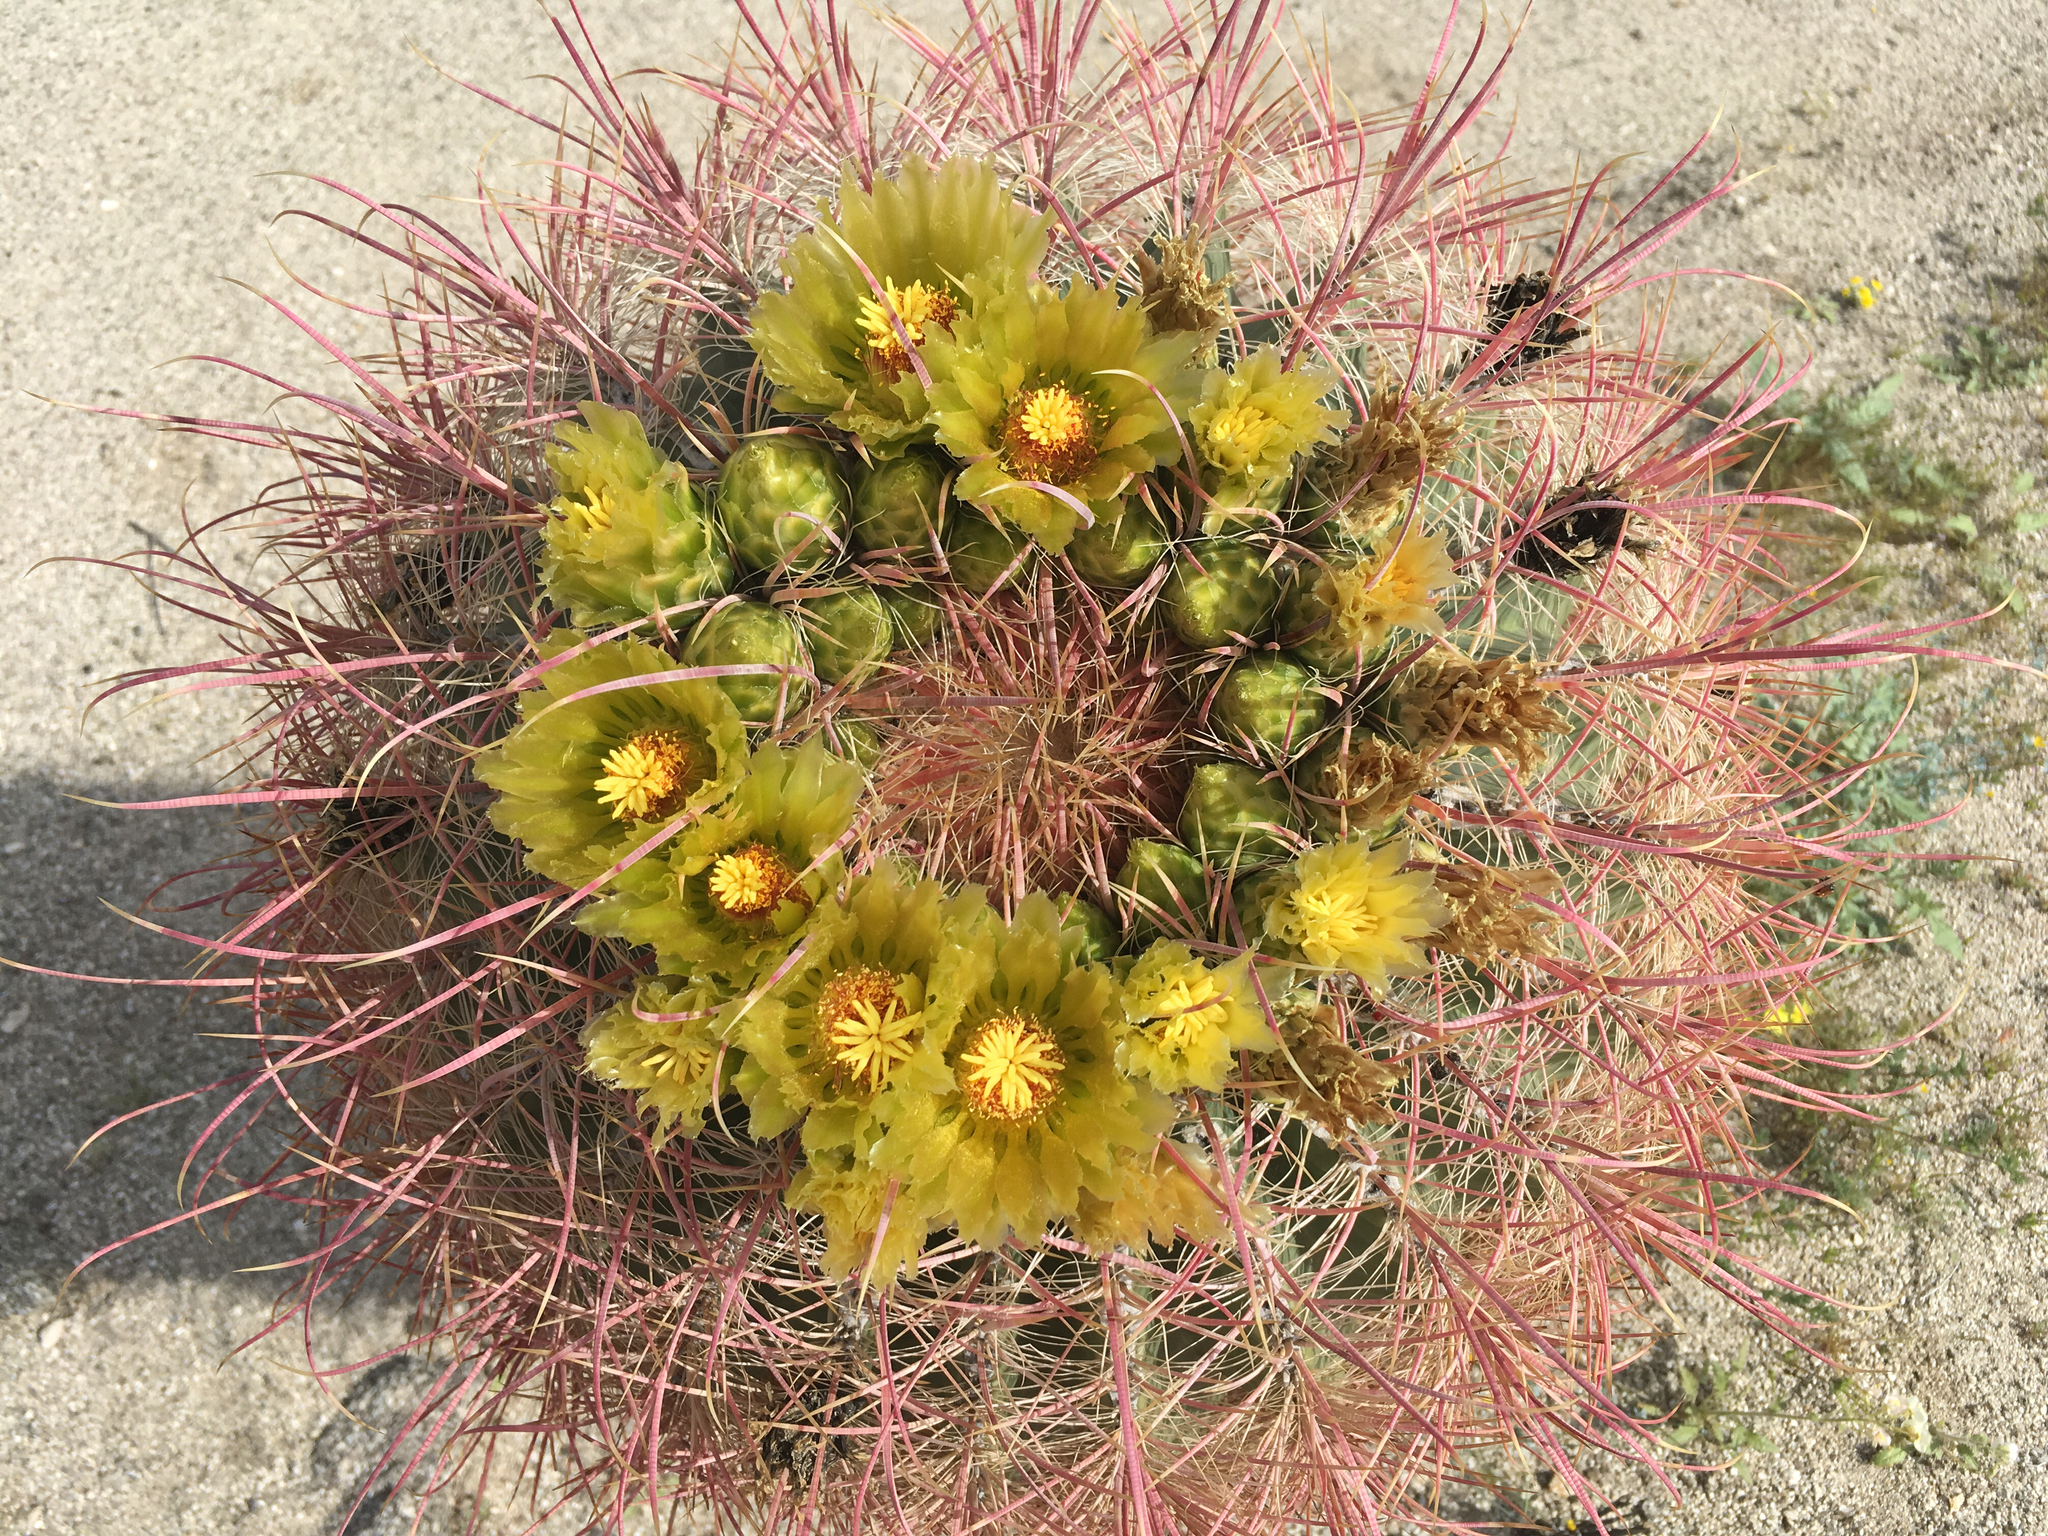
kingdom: Plantae
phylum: Tracheophyta
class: Magnoliopsida
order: Caryophyllales
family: Cactaceae
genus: Ferocactus
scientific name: Ferocactus cylindraceus
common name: California barrel cactus
